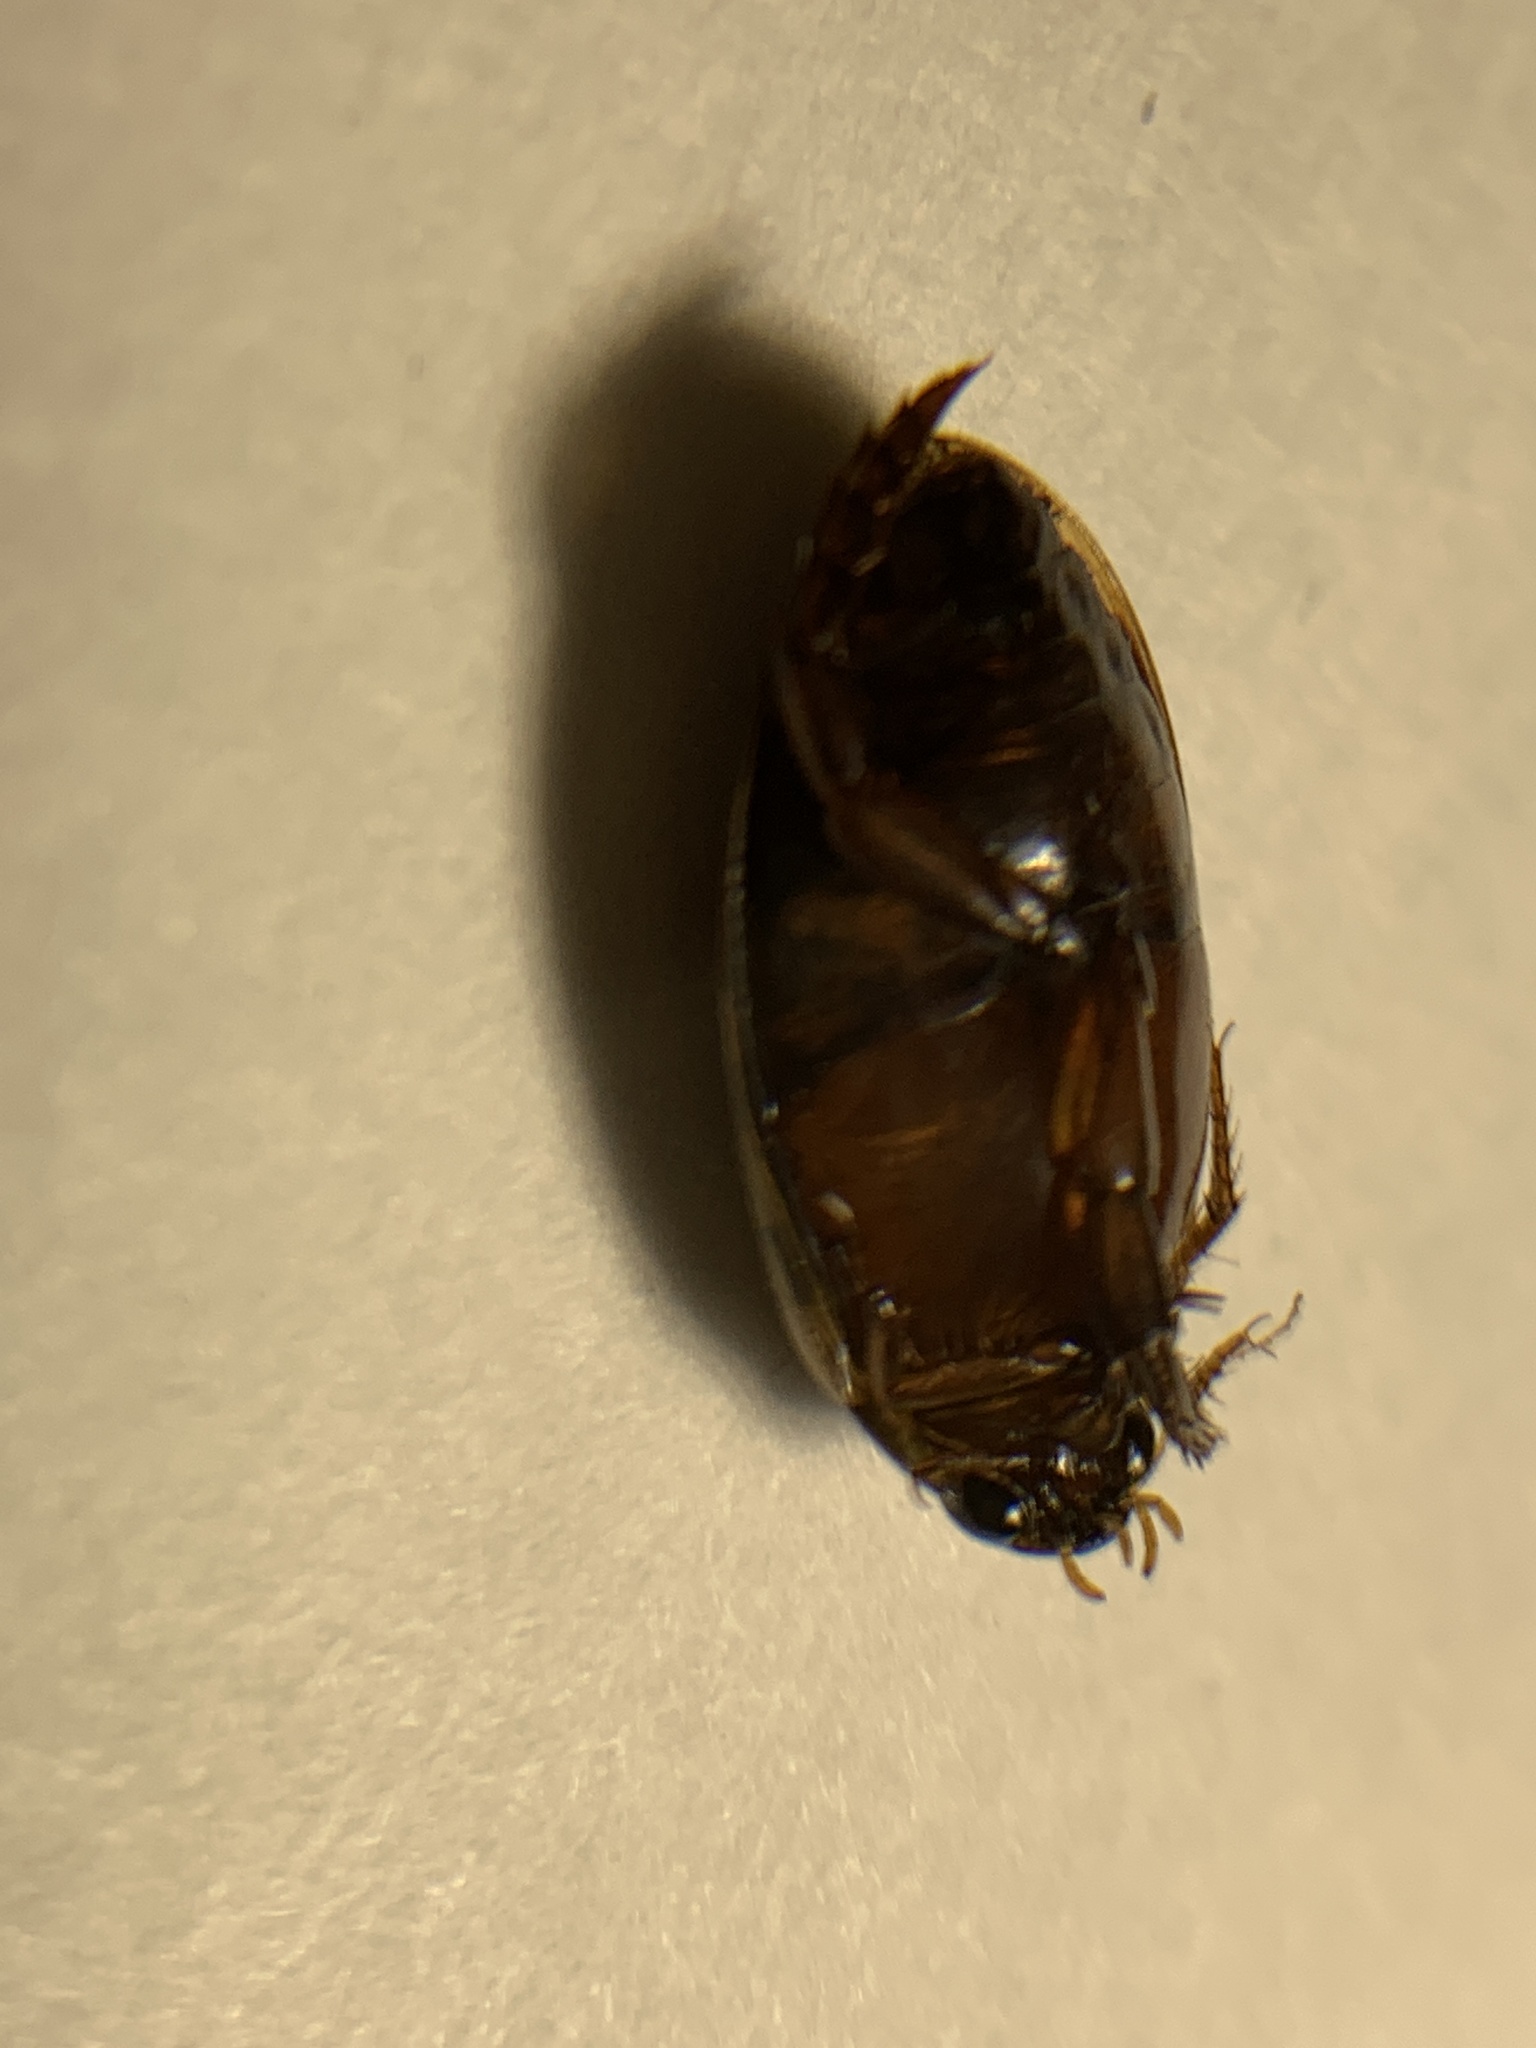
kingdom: Animalia
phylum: Arthropoda
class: Insecta
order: Coleoptera
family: Dytiscidae
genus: Thermonectus
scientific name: Thermonectus nigrofasciatus
